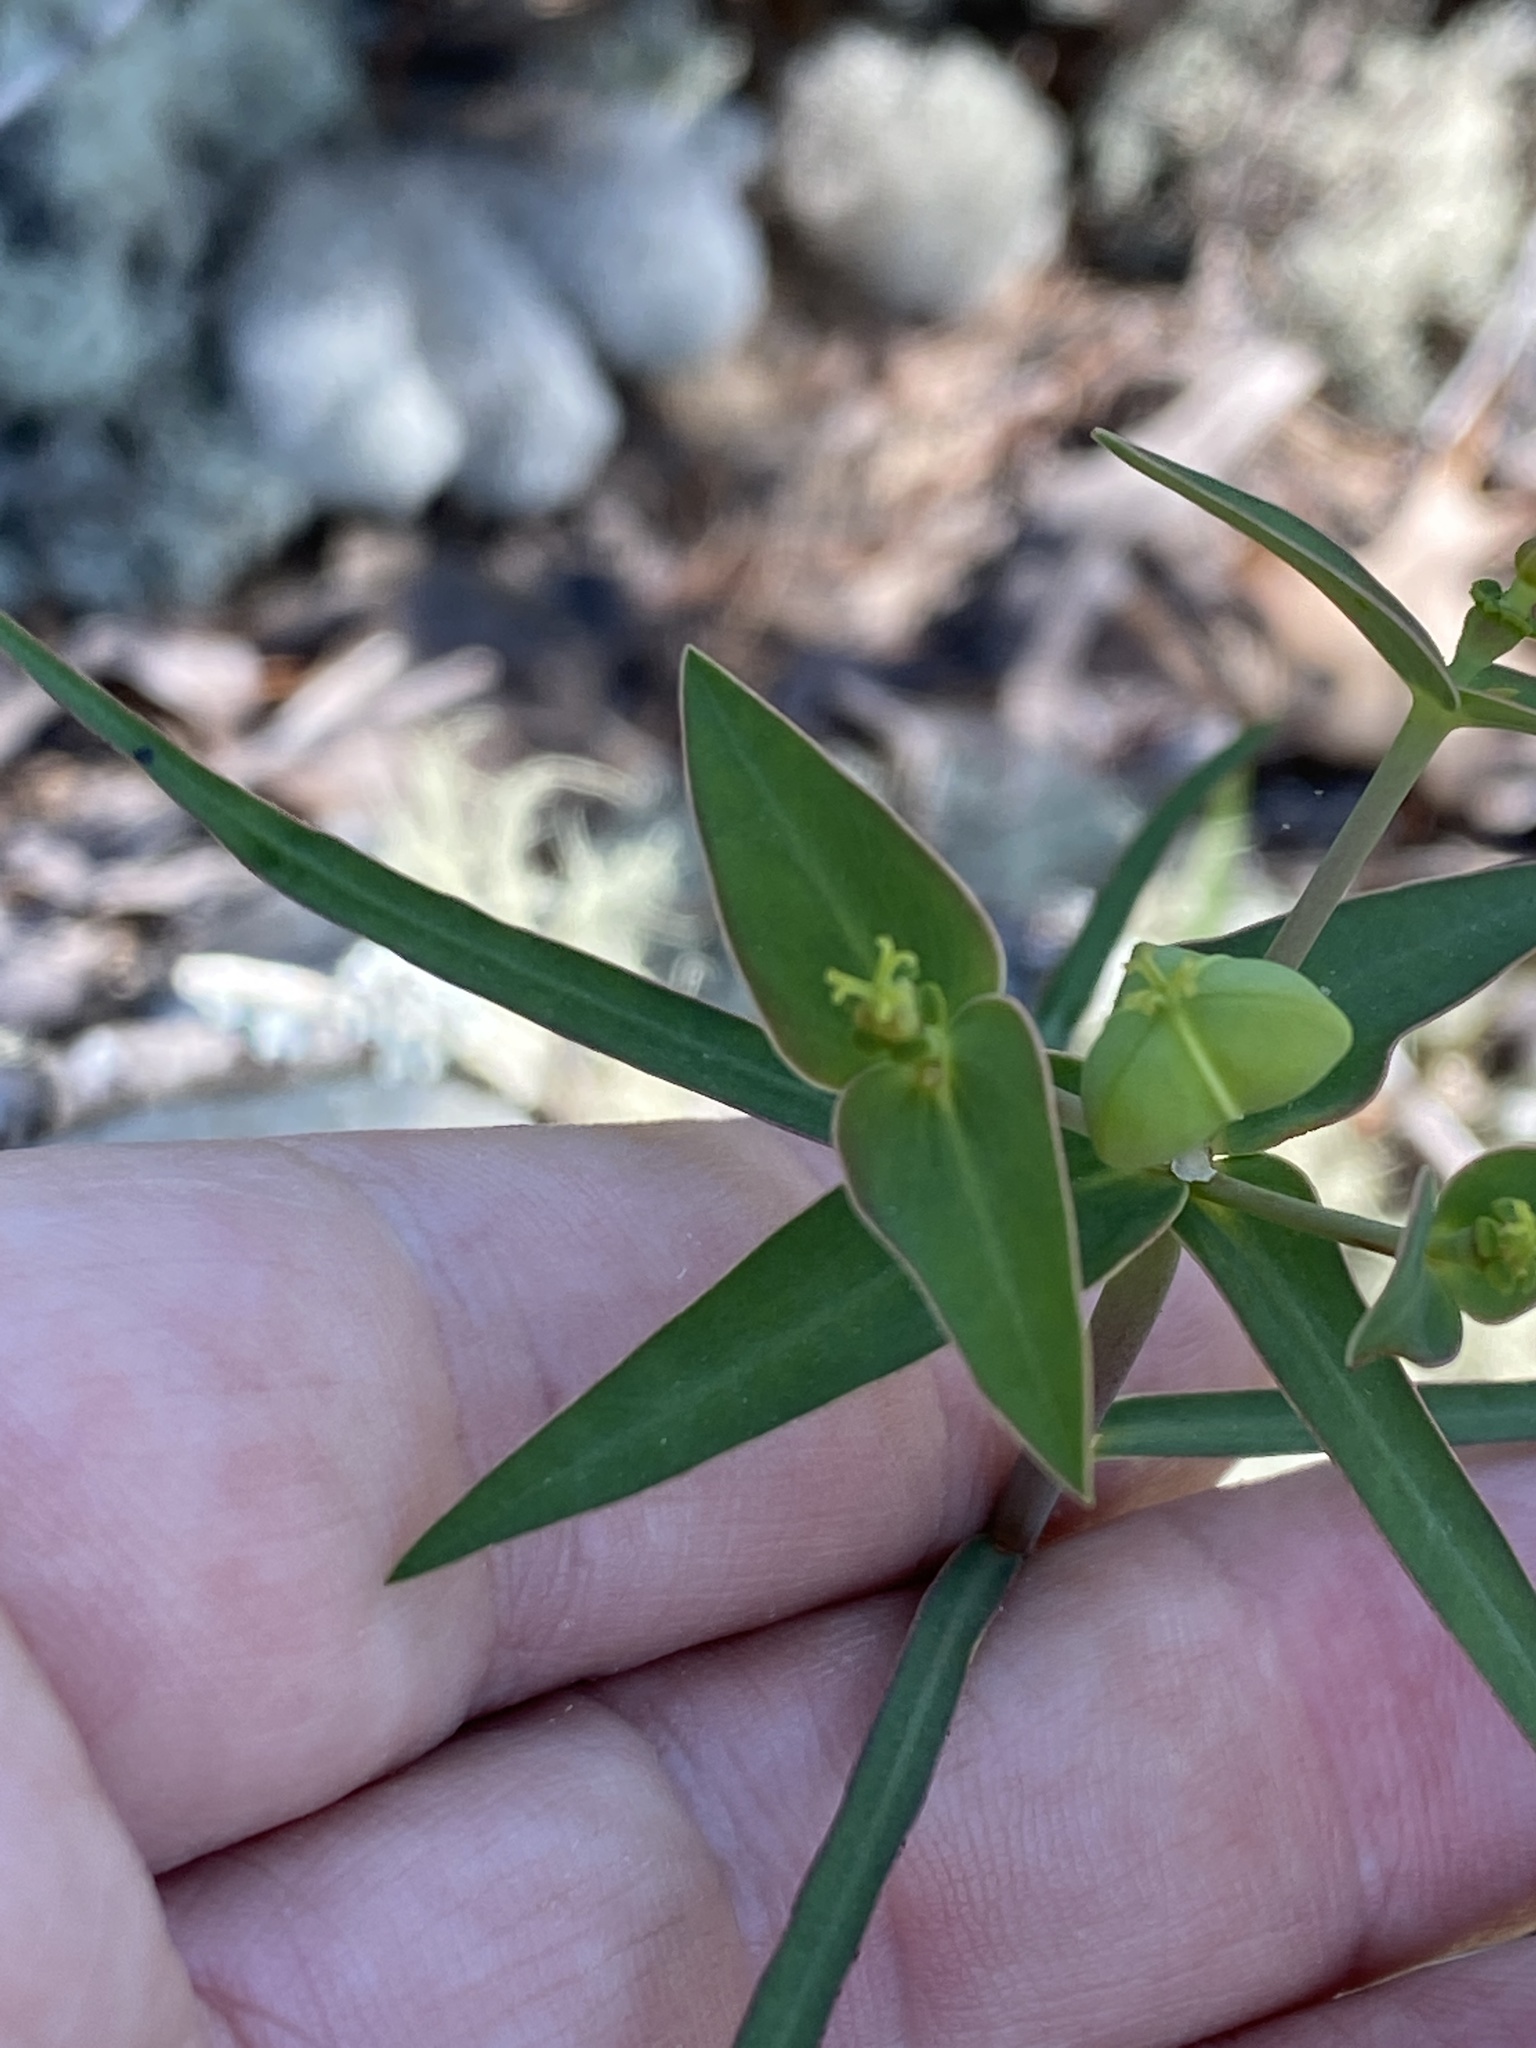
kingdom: Plantae
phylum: Tracheophyta
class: Magnoliopsida
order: Malpighiales
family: Euphorbiaceae
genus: Euphorbia
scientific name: Euphorbia floridana
